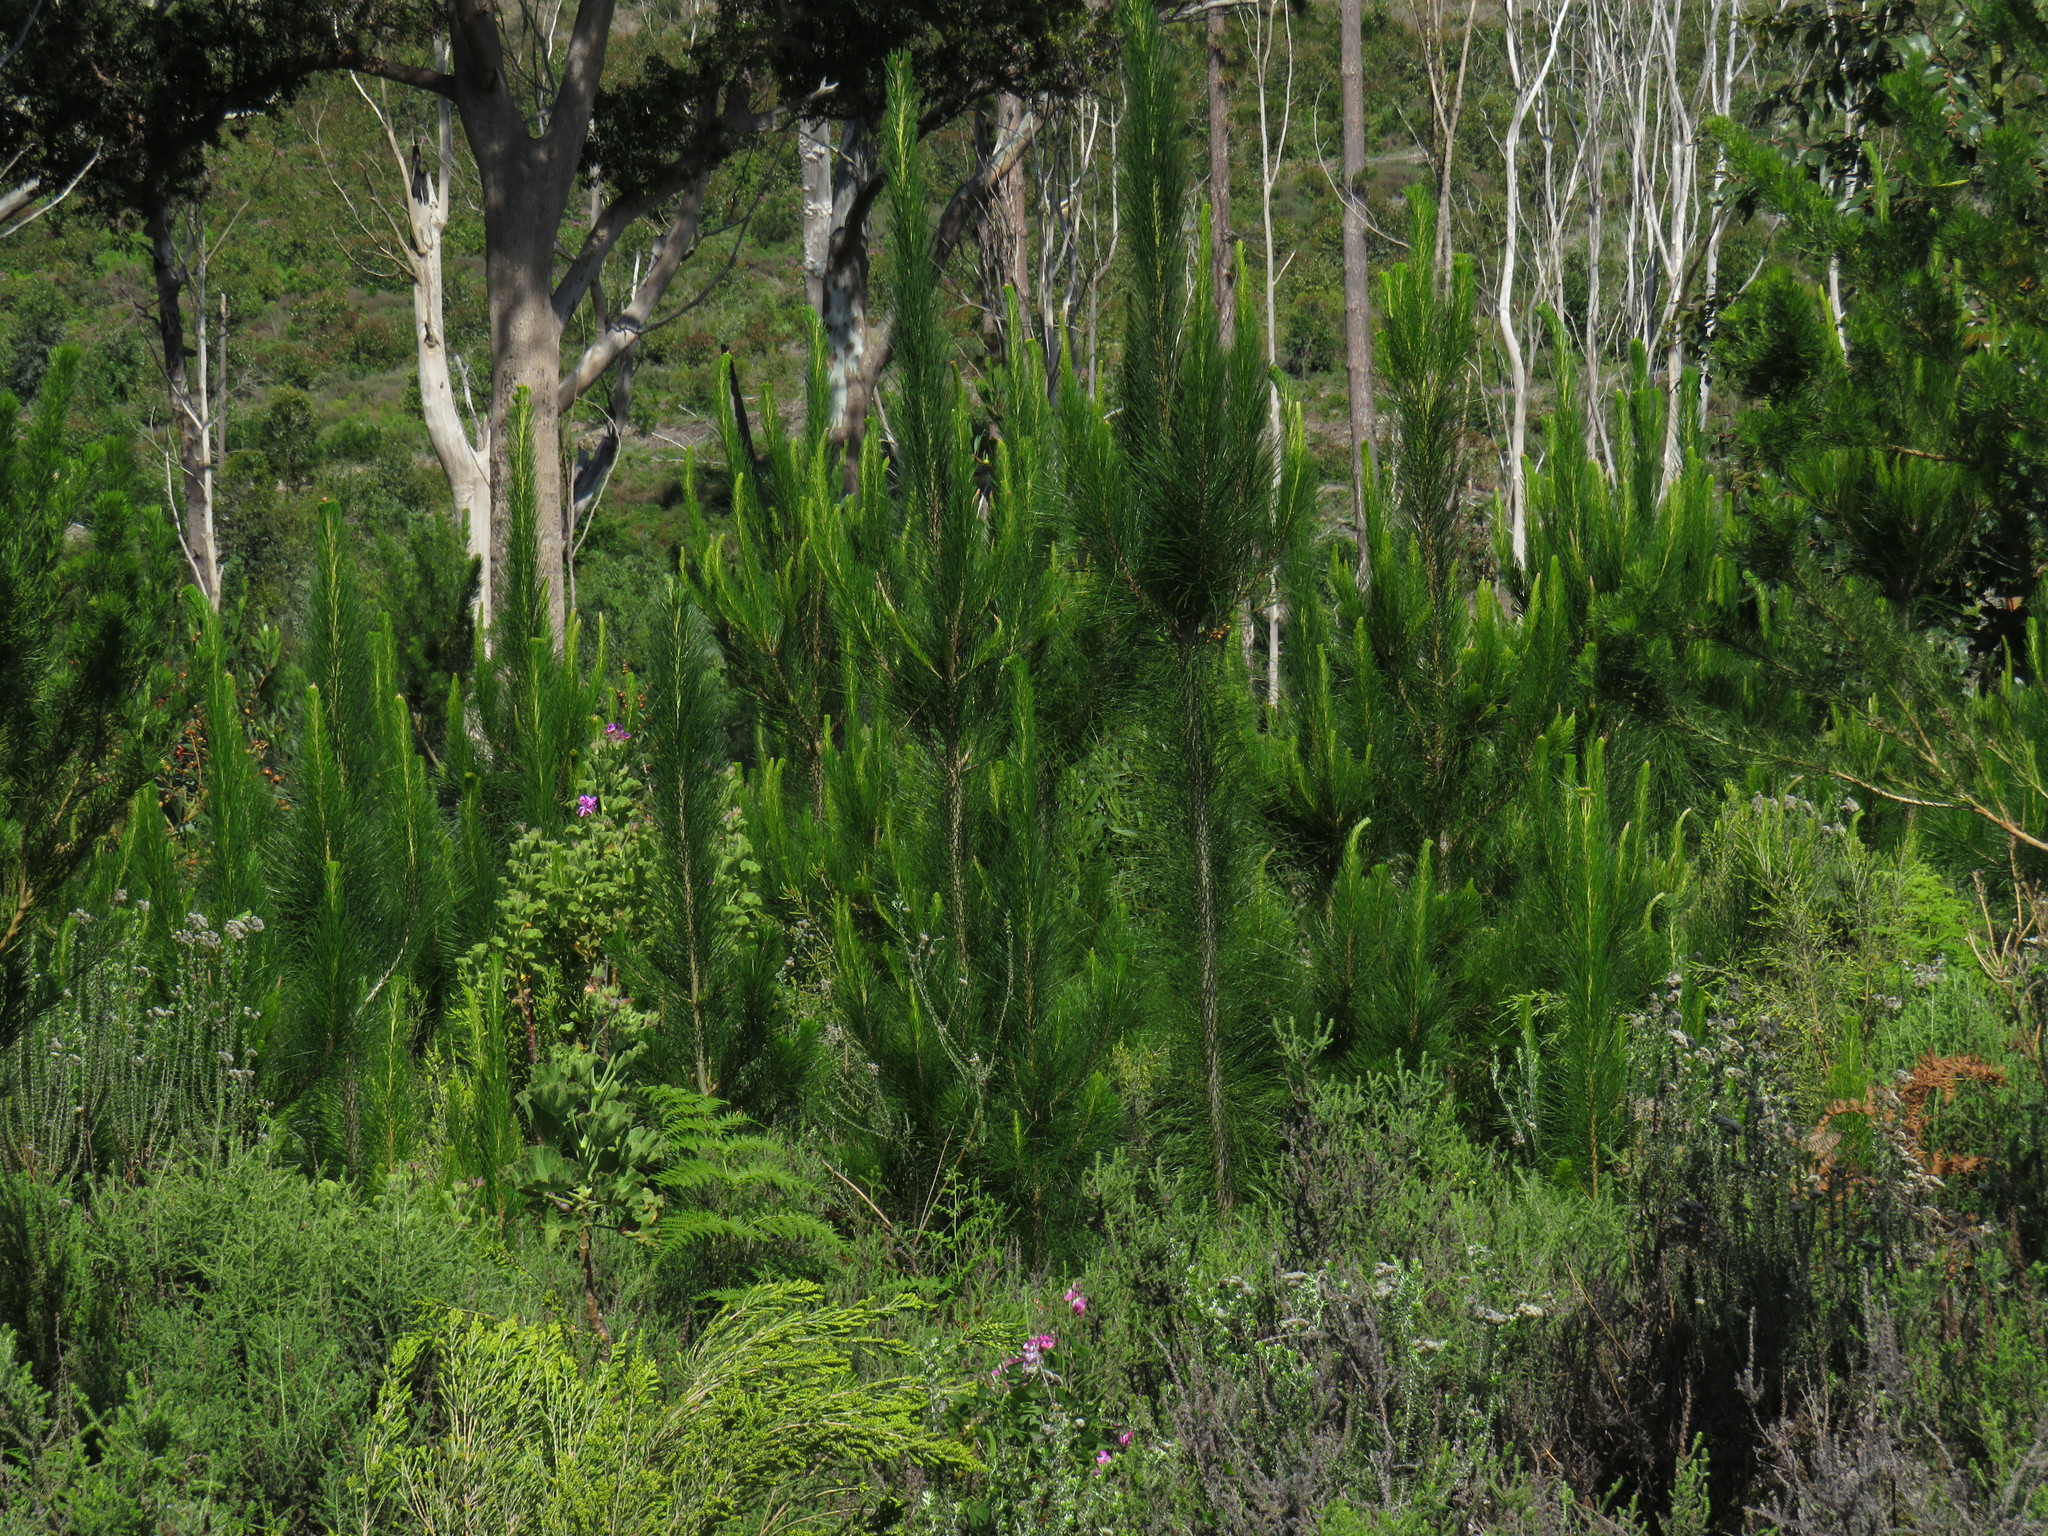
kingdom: Plantae
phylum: Tracheophyta
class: Pinopsida
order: Pinales
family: Pinaceae
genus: Pinus
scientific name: Pinus radiata
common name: Monterey pine
